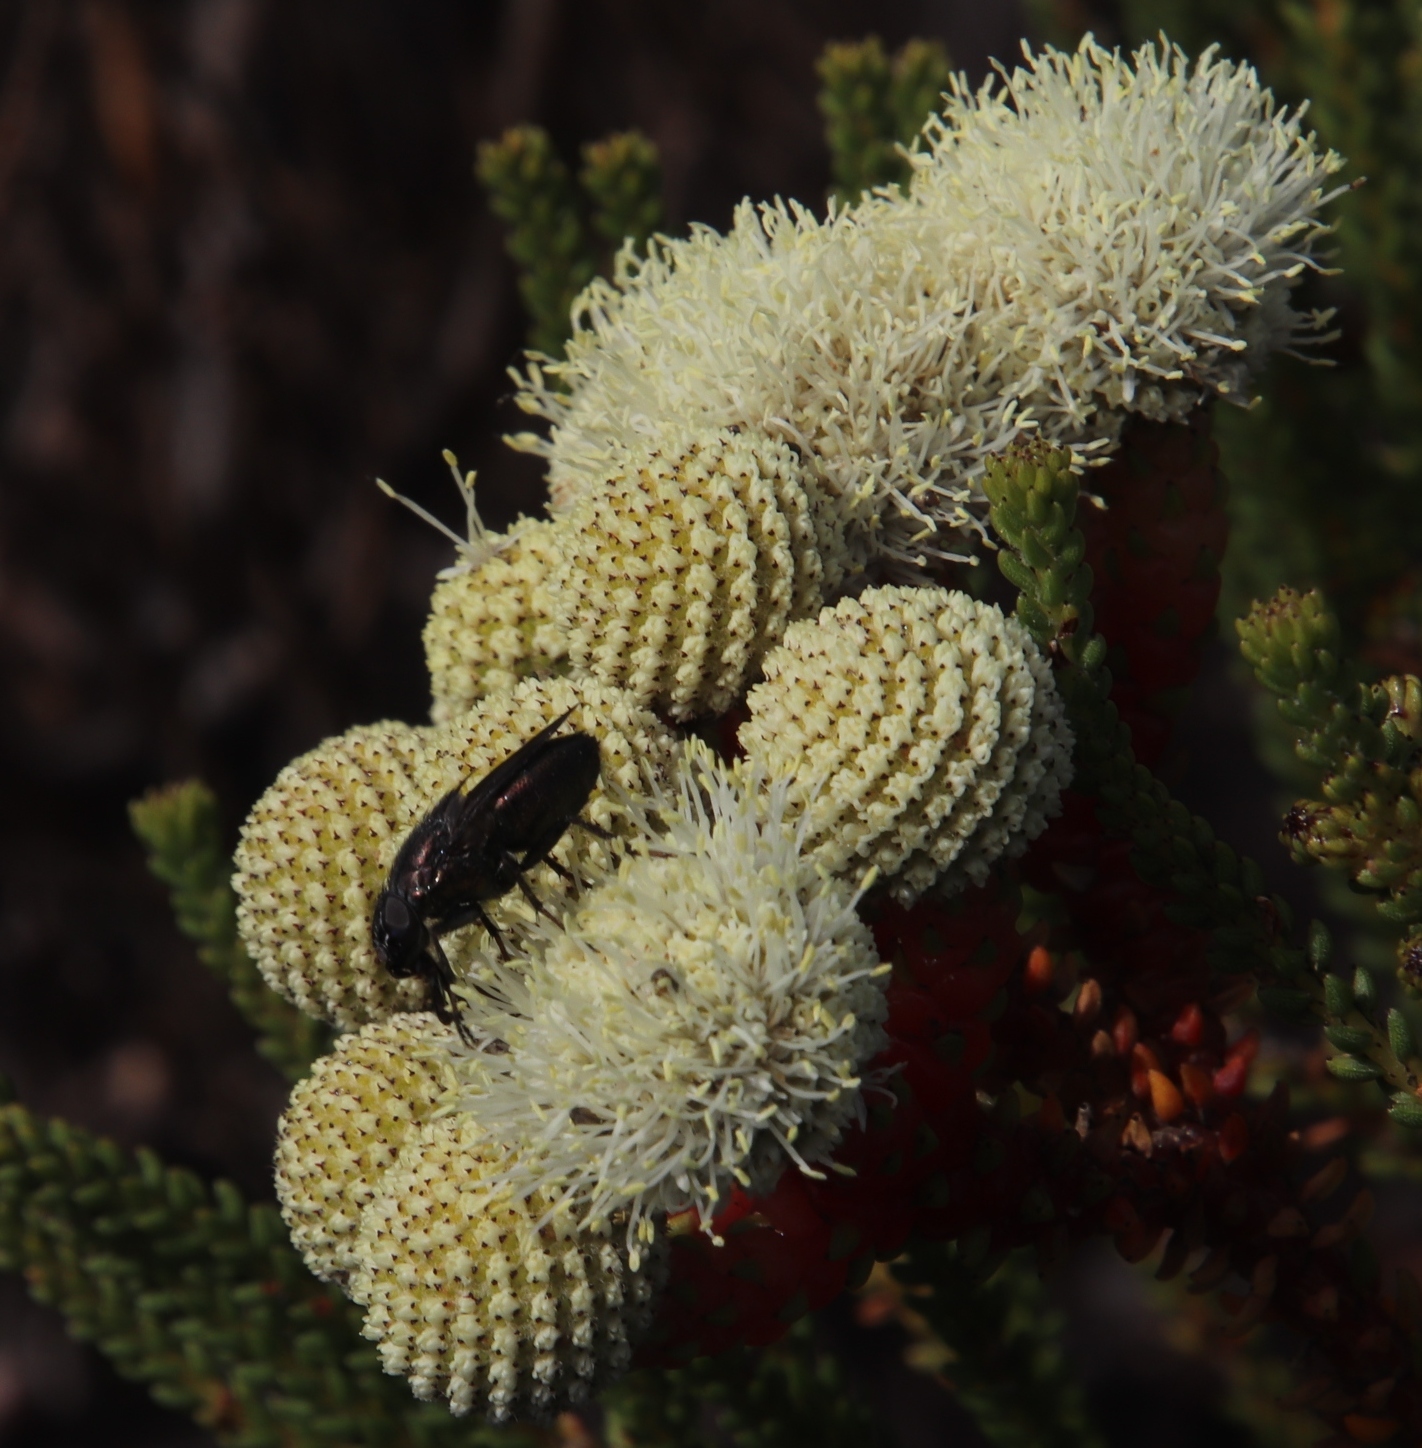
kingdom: Plantae
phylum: Tracheophyta
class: Magnoliopsida
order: Bruniales
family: Bruniaceae
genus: Berzelia
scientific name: Berzelia abrotanoides
